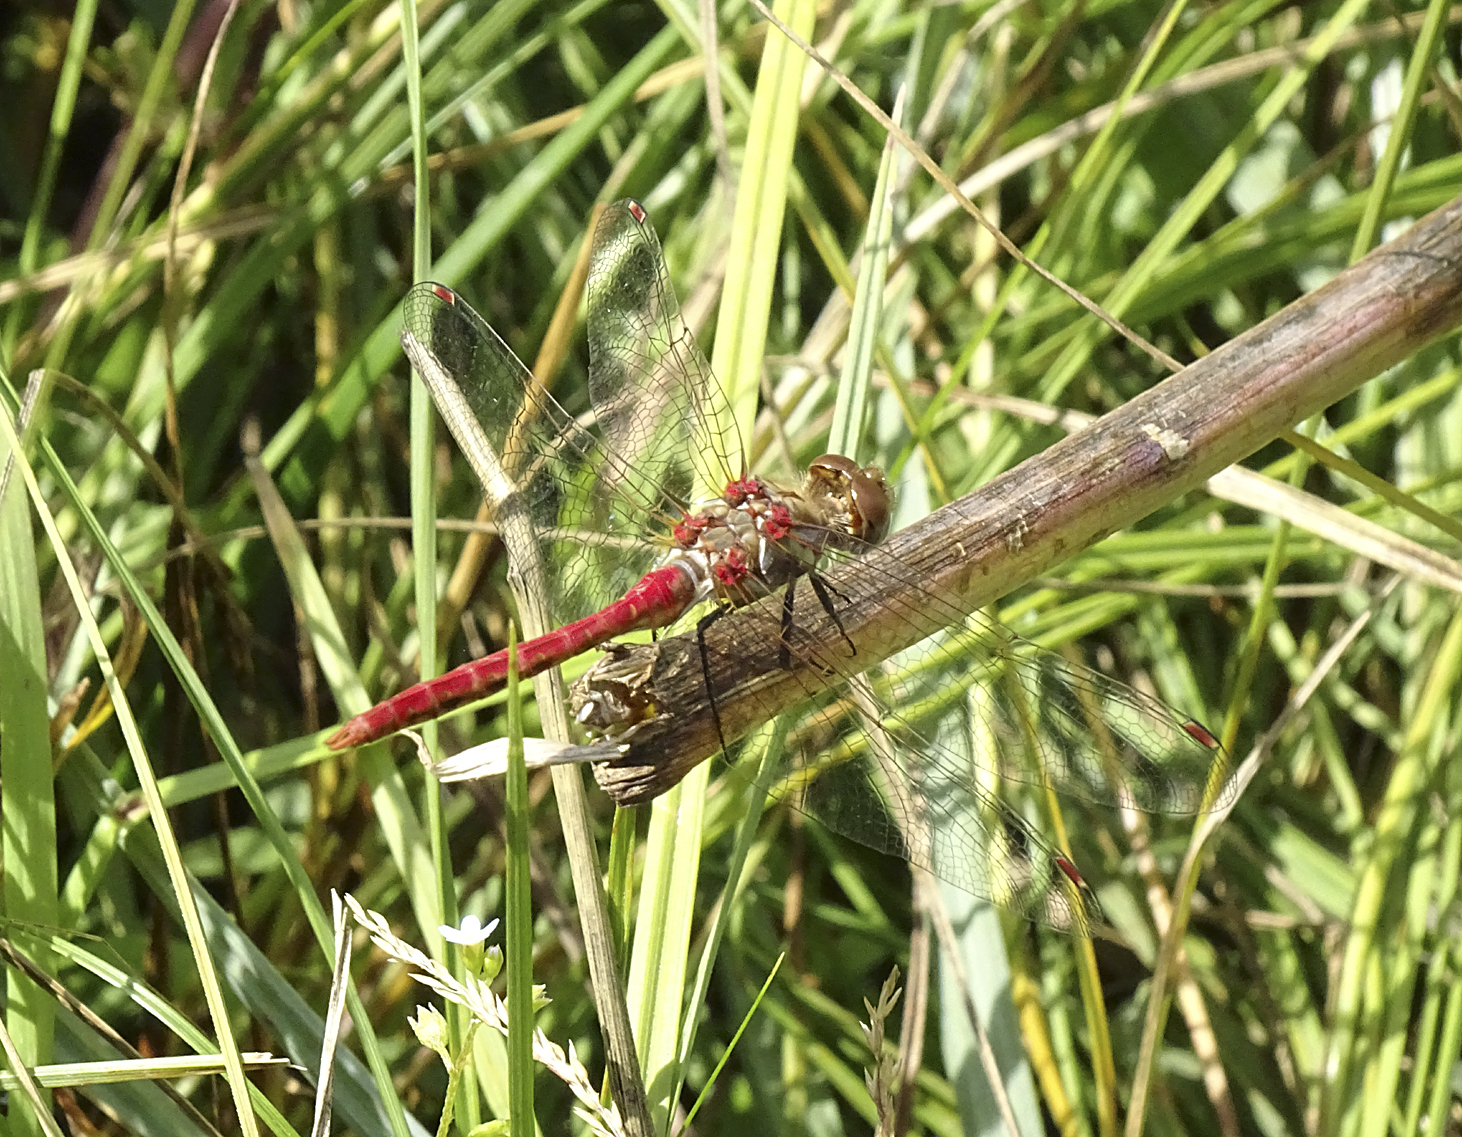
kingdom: Animalia
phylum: Arthropoda
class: Insecta
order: Odonata
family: Libellulidae
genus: Sympetrum
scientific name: Sympetrum pallipes
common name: Striped meadowhawk
